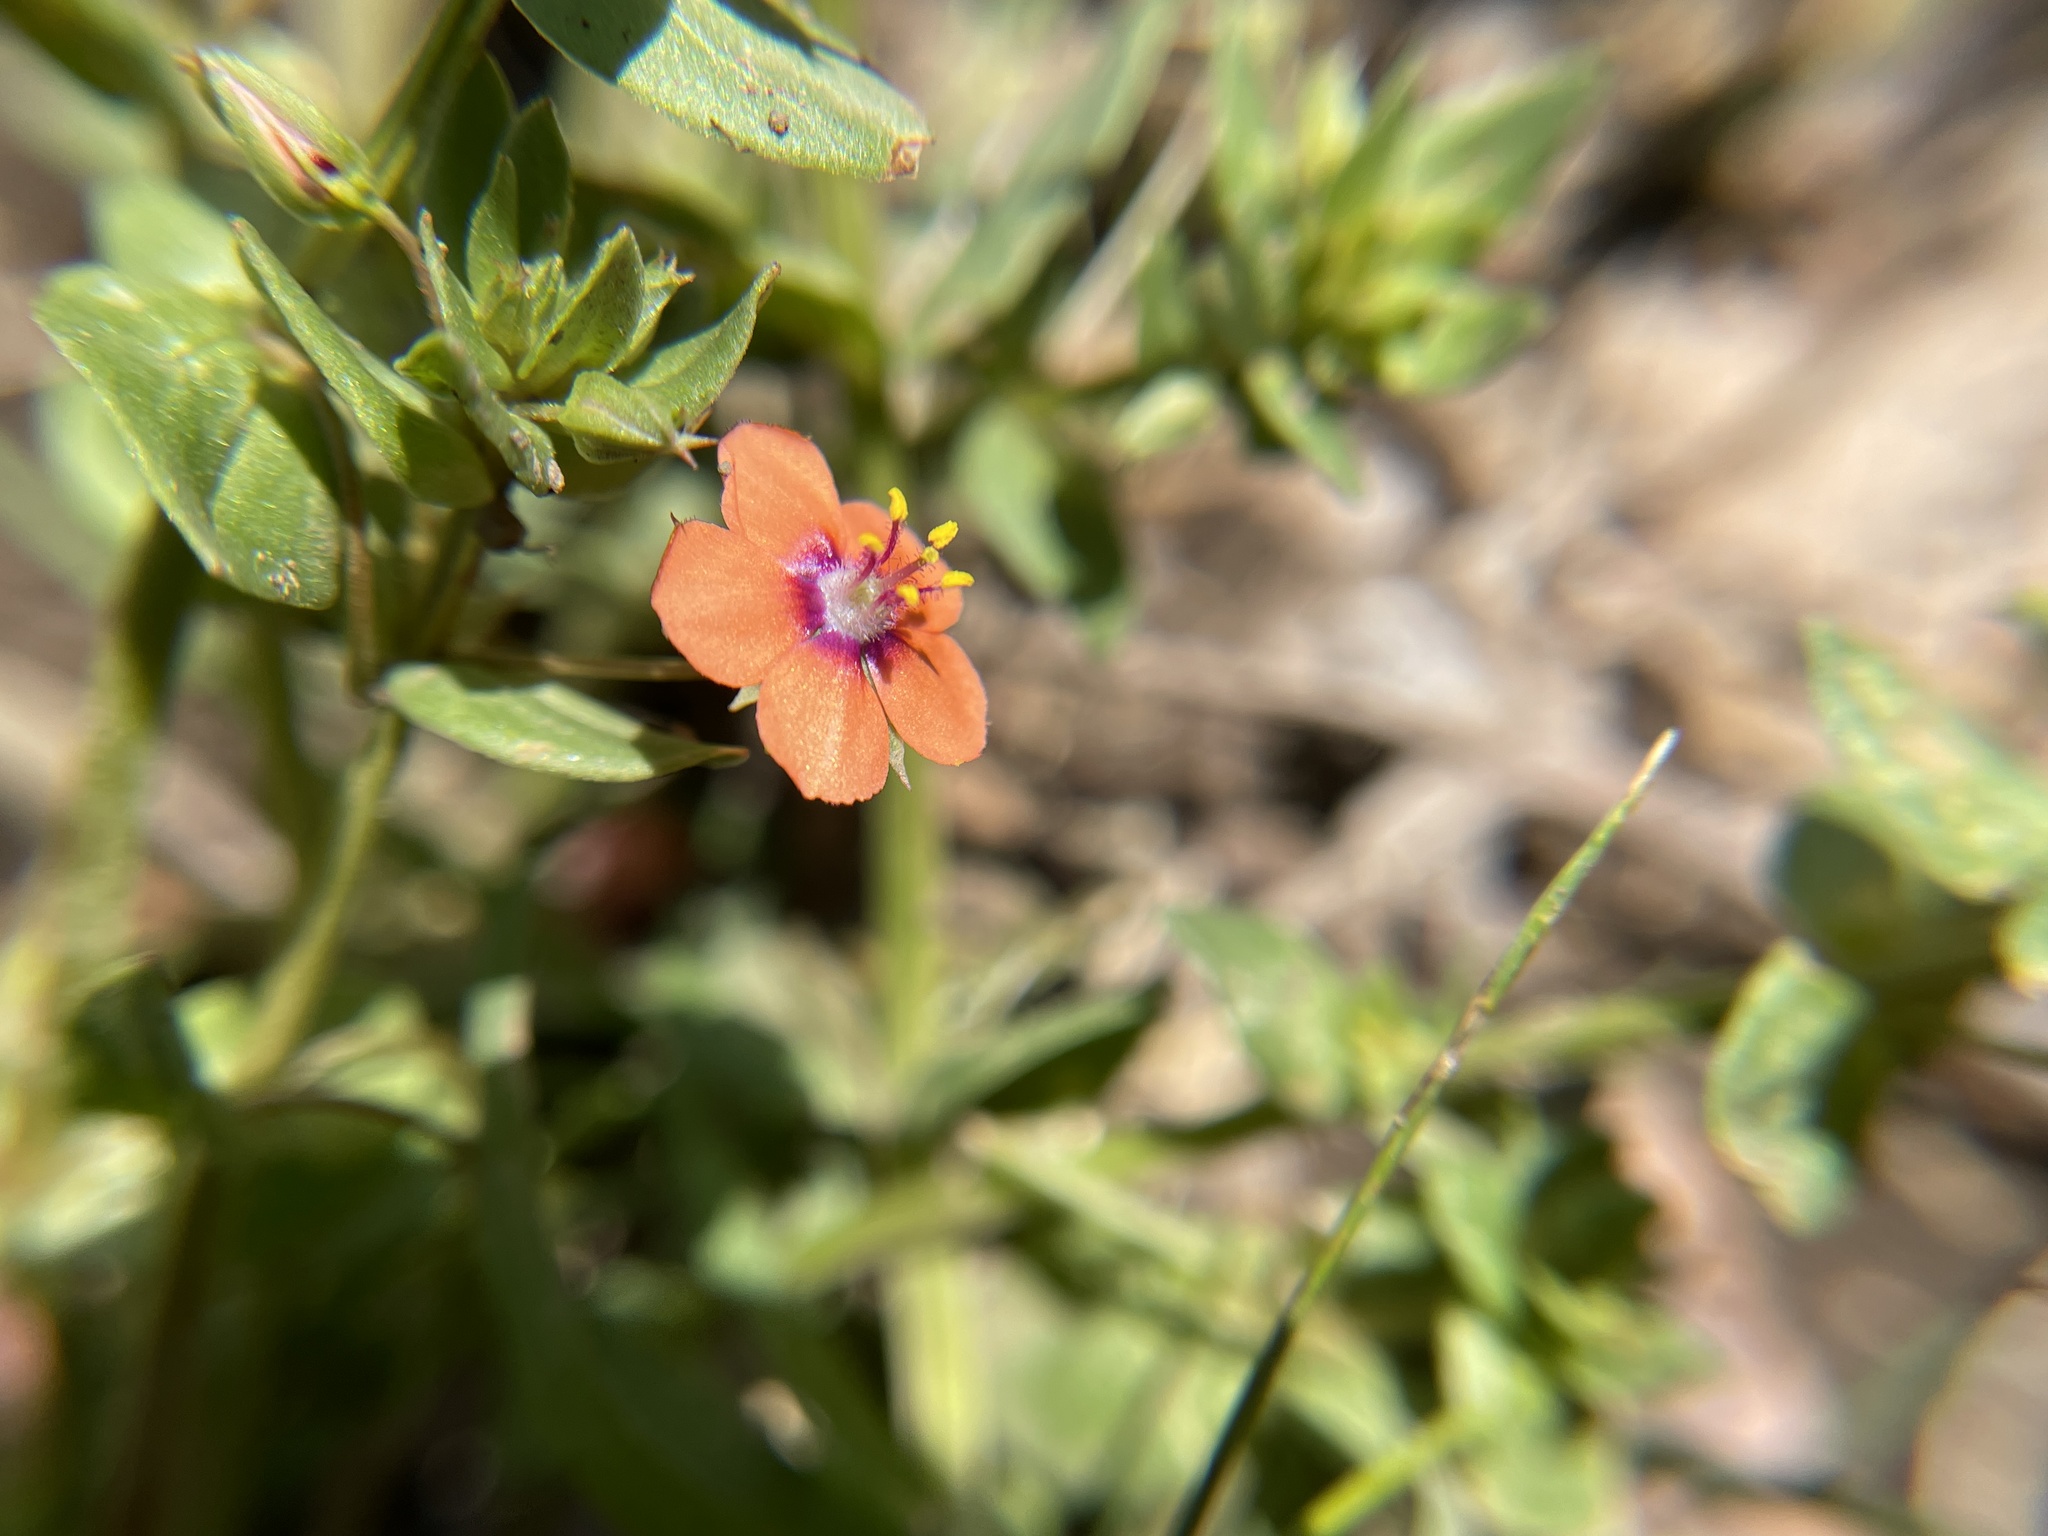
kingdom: Plantae
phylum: Tracheophyta
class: Magnoliopsida
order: Ericales
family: Primulaceae
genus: Lysimachia
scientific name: Lysimachia arvensis
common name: Scarlet pimpernel
